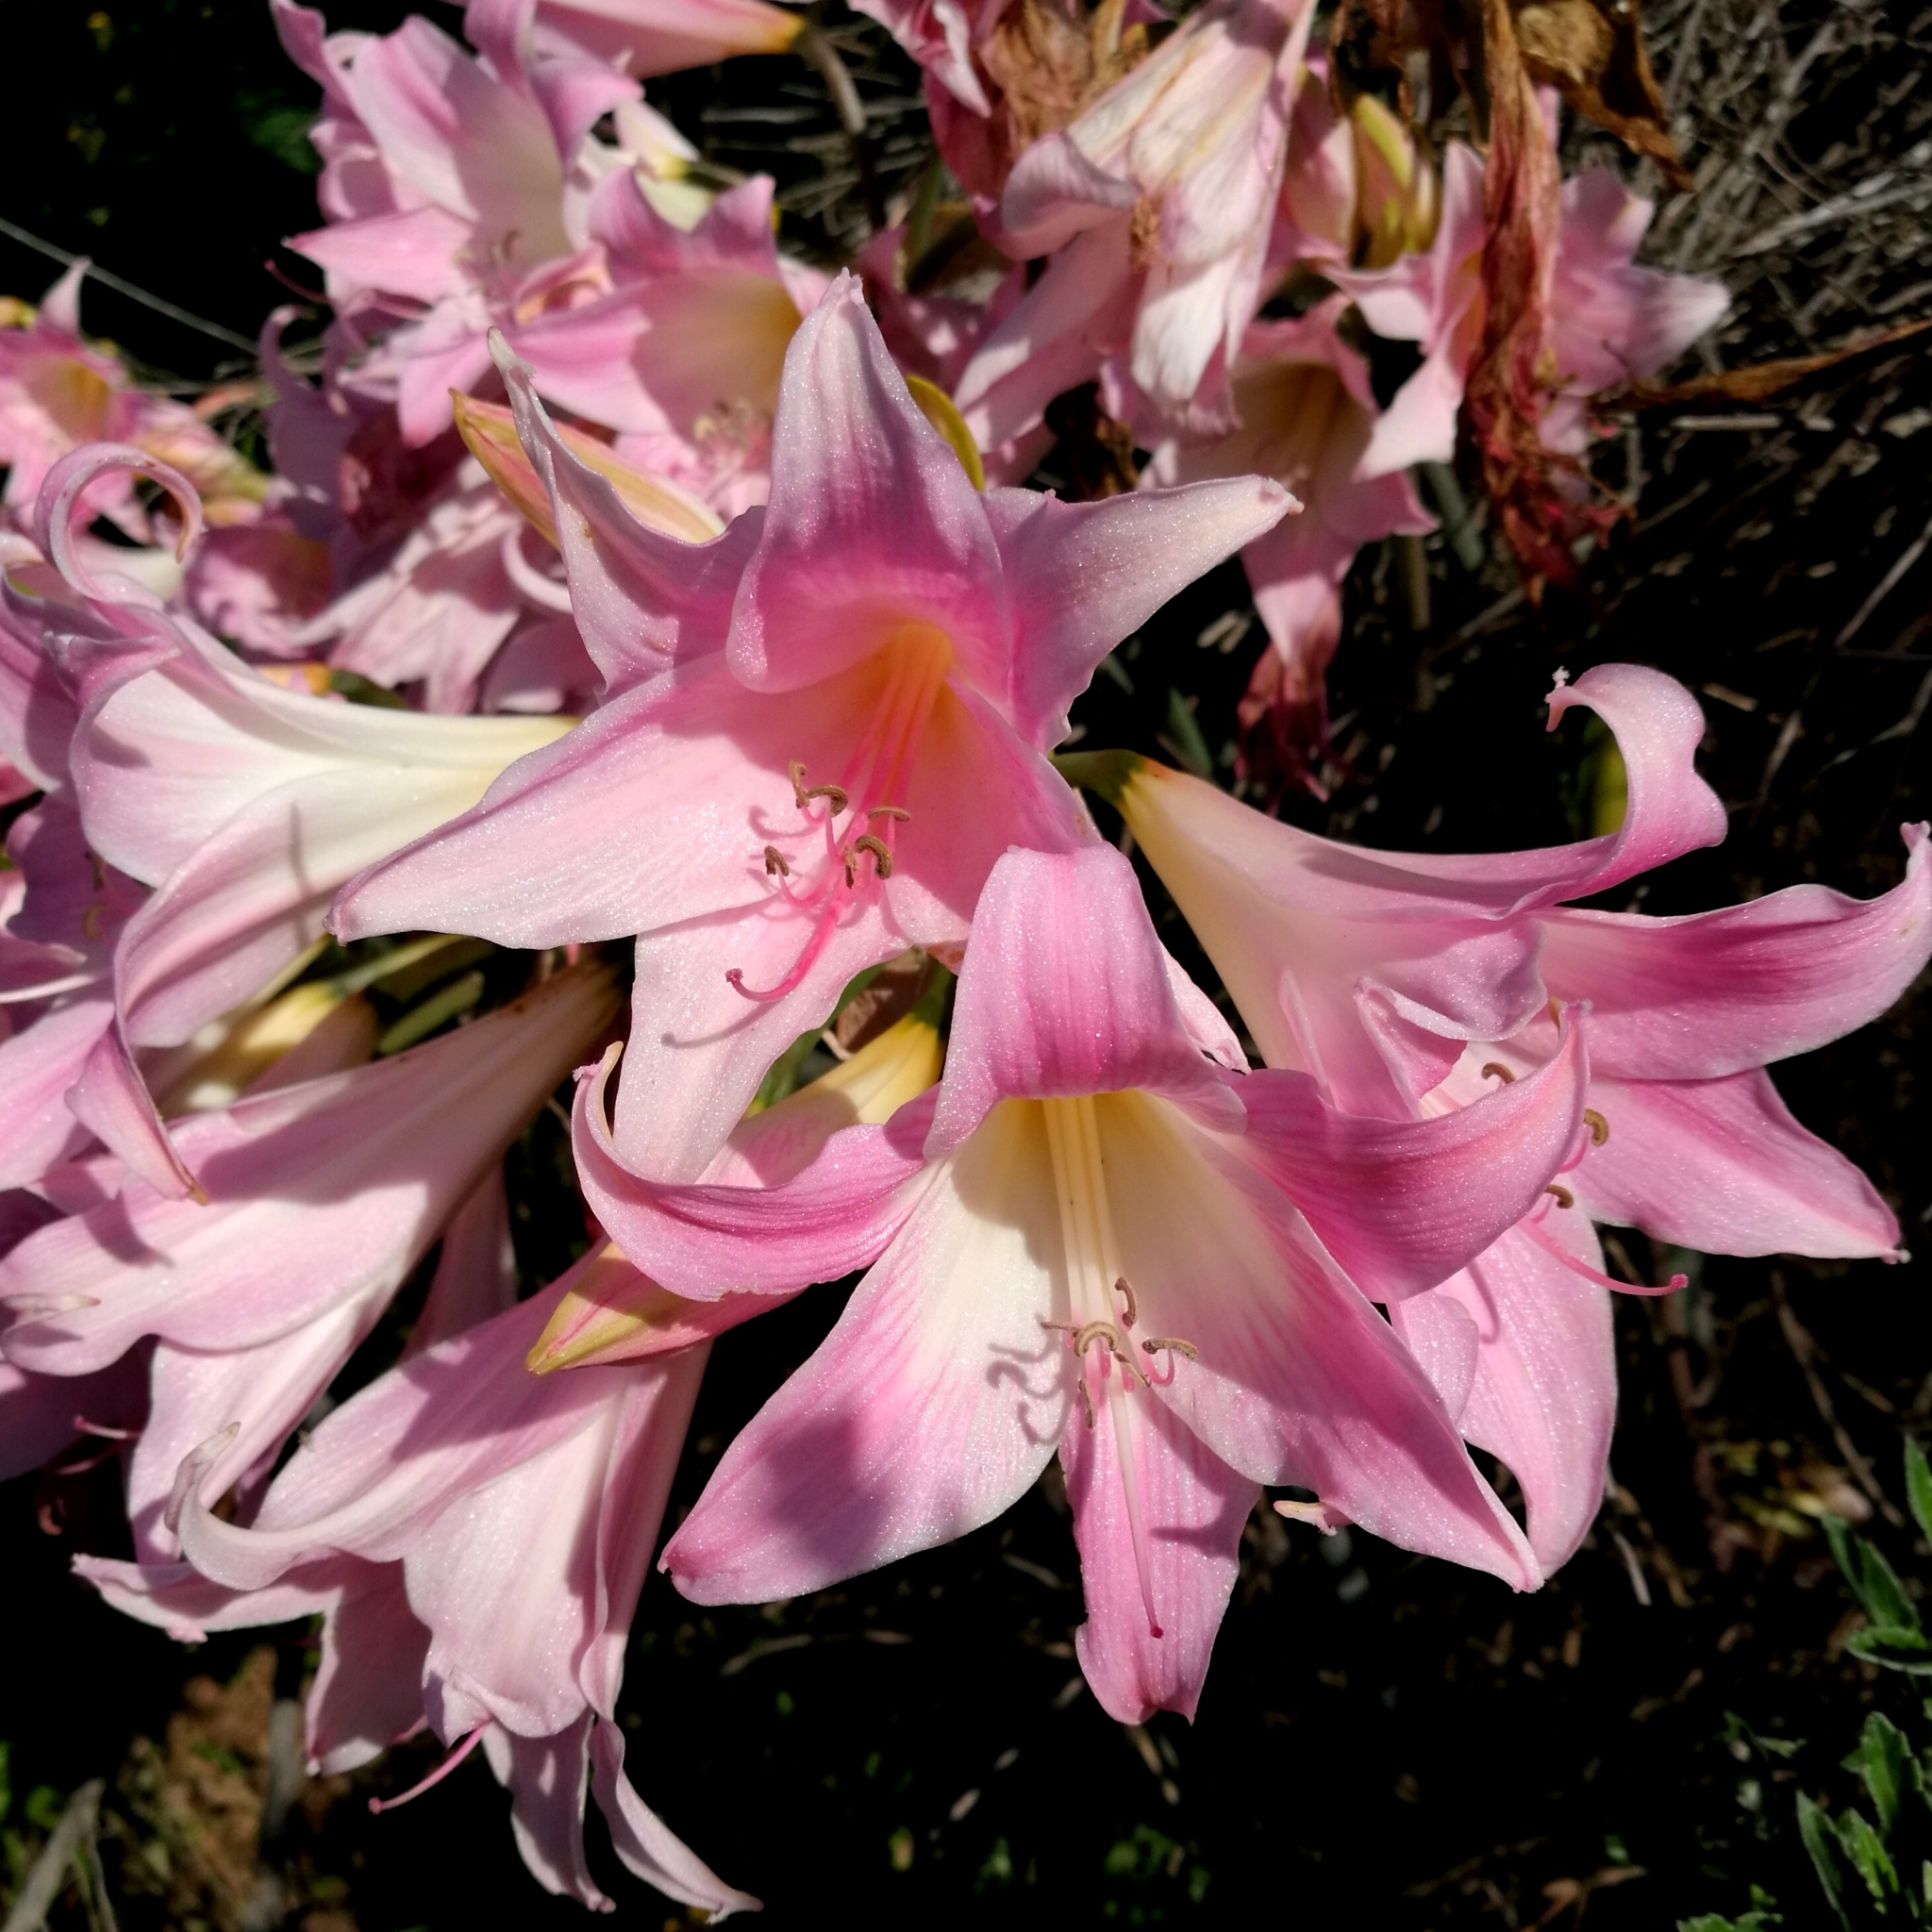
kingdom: Plantae
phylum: Tracheophyta
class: Liliopsida
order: Asparagales
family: Amaryllidaceae
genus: Amaryllis
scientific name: Amaryllis belladonna
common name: Jersey lily
